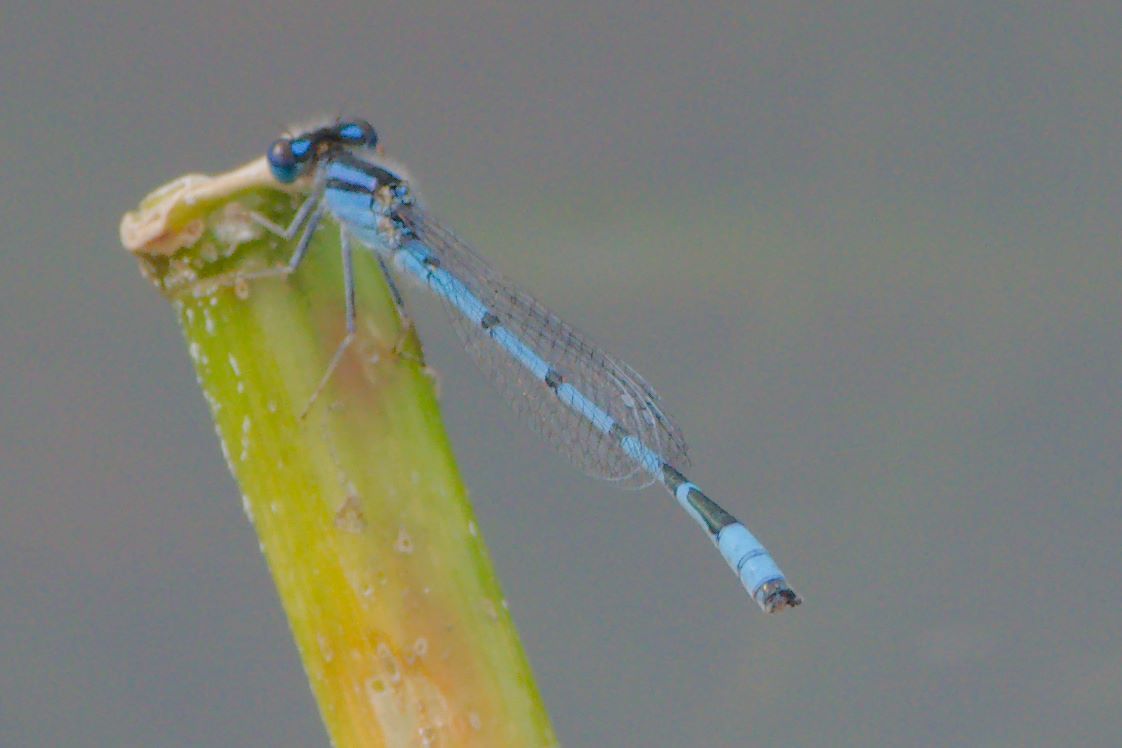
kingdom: Animalia
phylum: Arthropoda
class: Insecta
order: Odonata
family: Coenagrionidae
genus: Enallagma
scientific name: Enallagma civile
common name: Damselfly
